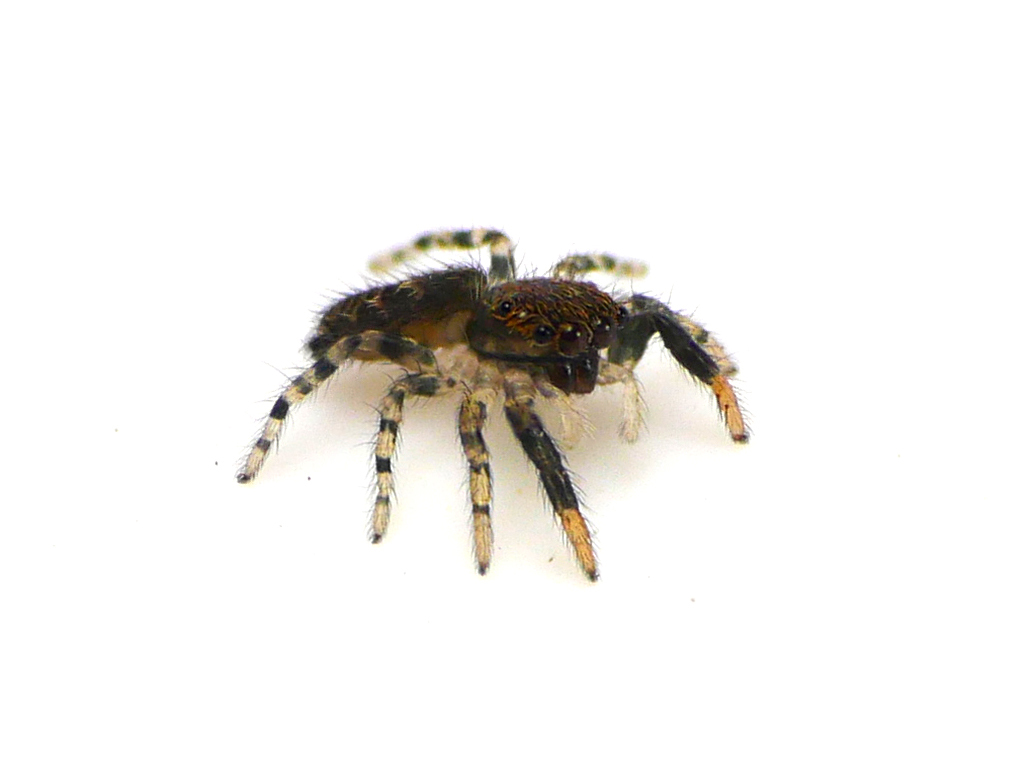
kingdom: Animalia
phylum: Arthropoda
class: Arachnida
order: Araneae
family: Salticidae
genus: Euophrys
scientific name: Euophrys frontalis
